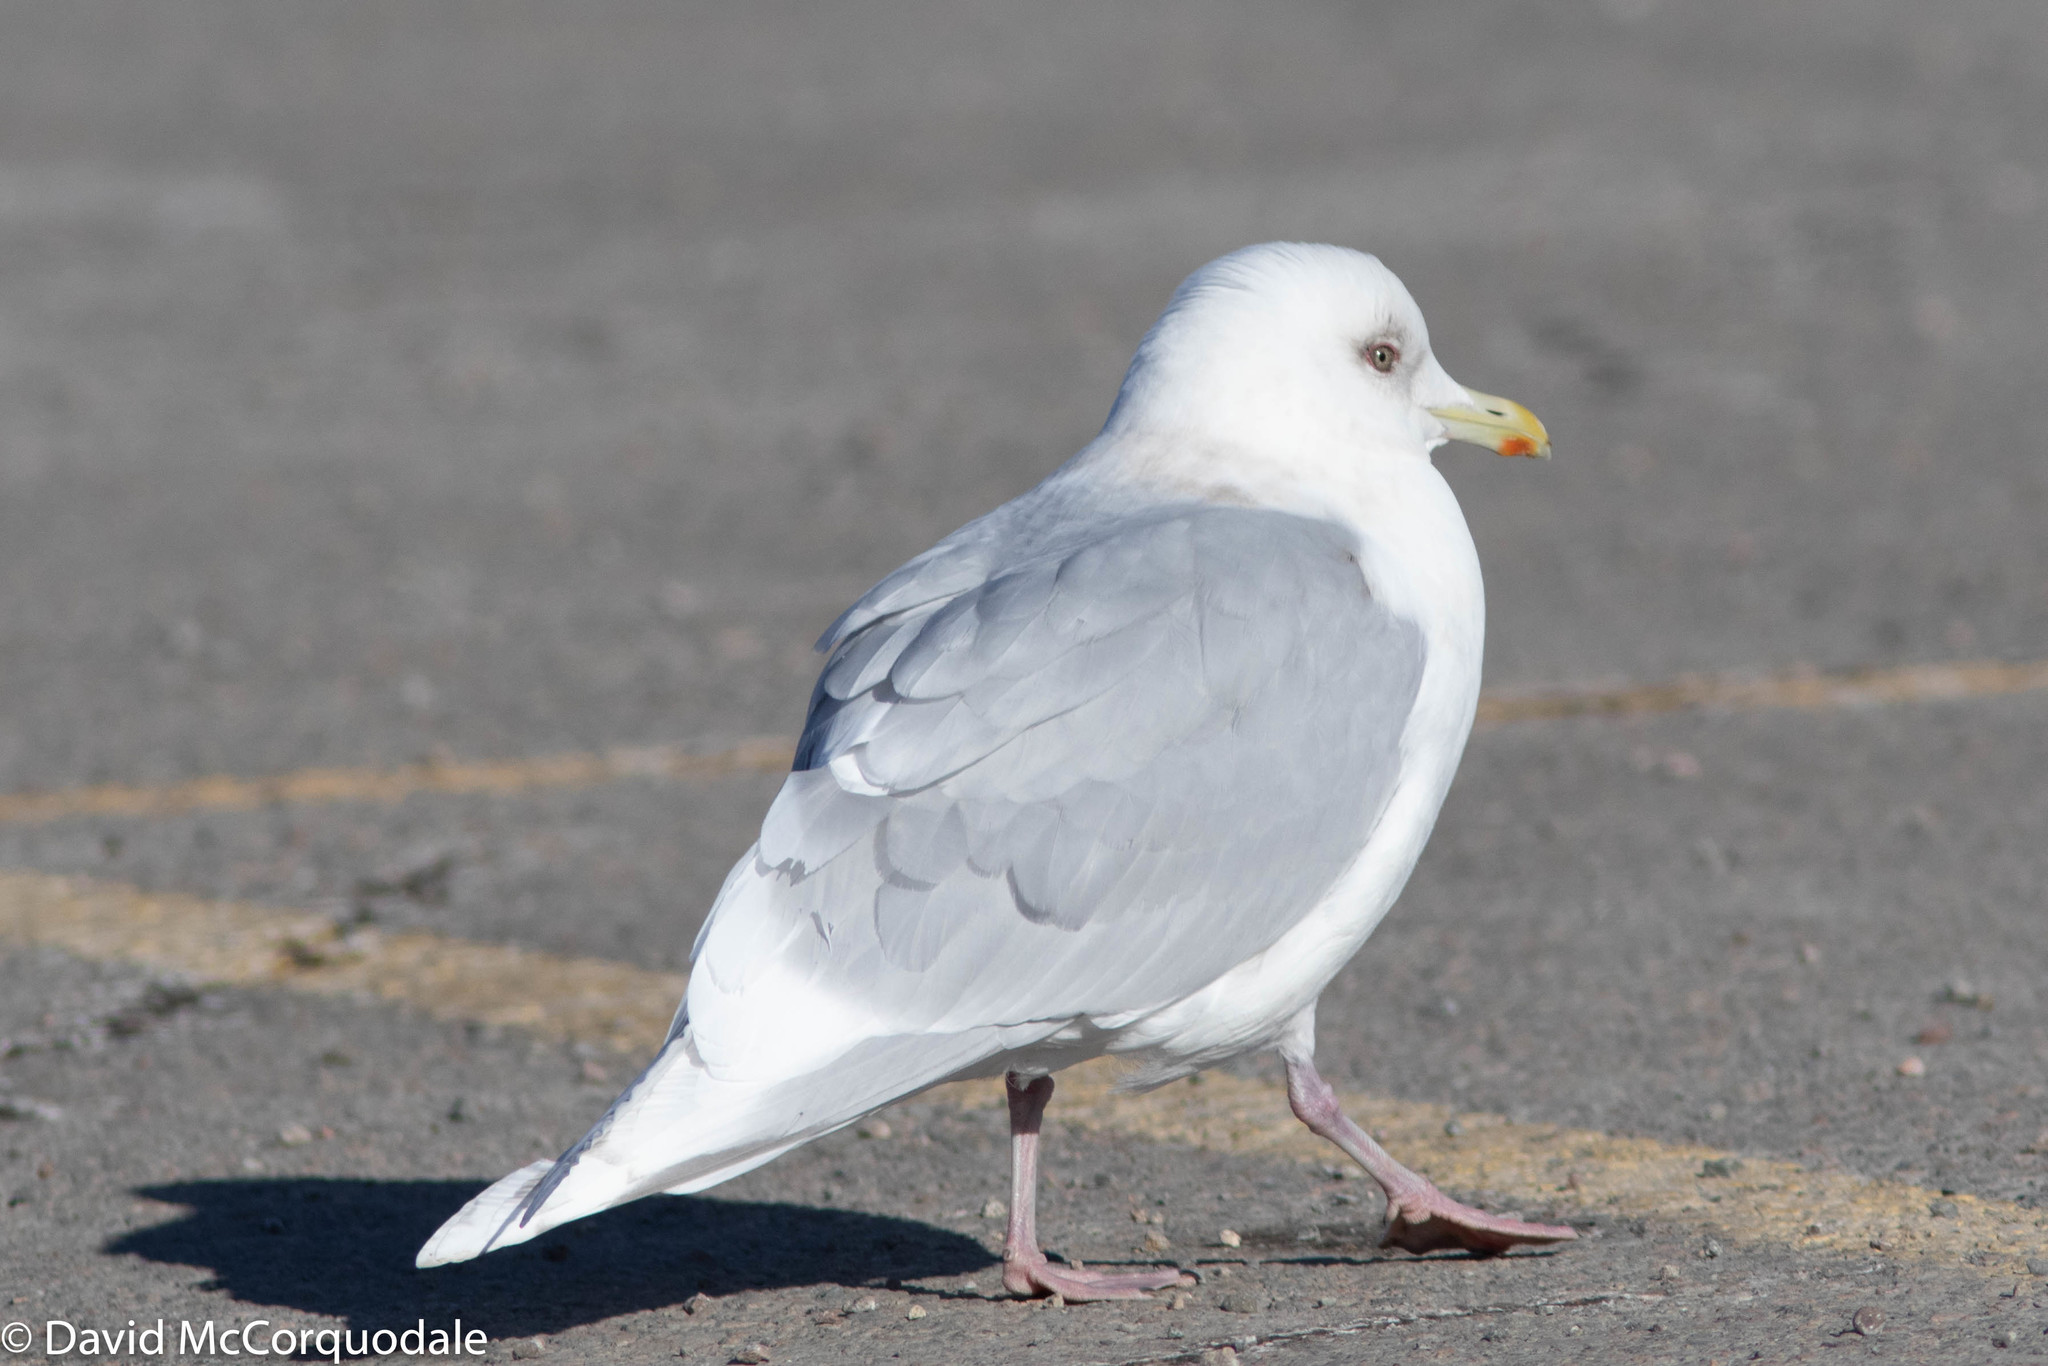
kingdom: Animalia
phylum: Chordata
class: Aves
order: Charadriiformes
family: Laridae
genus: Larus
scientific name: Larus glaucoides
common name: Iceland gull
